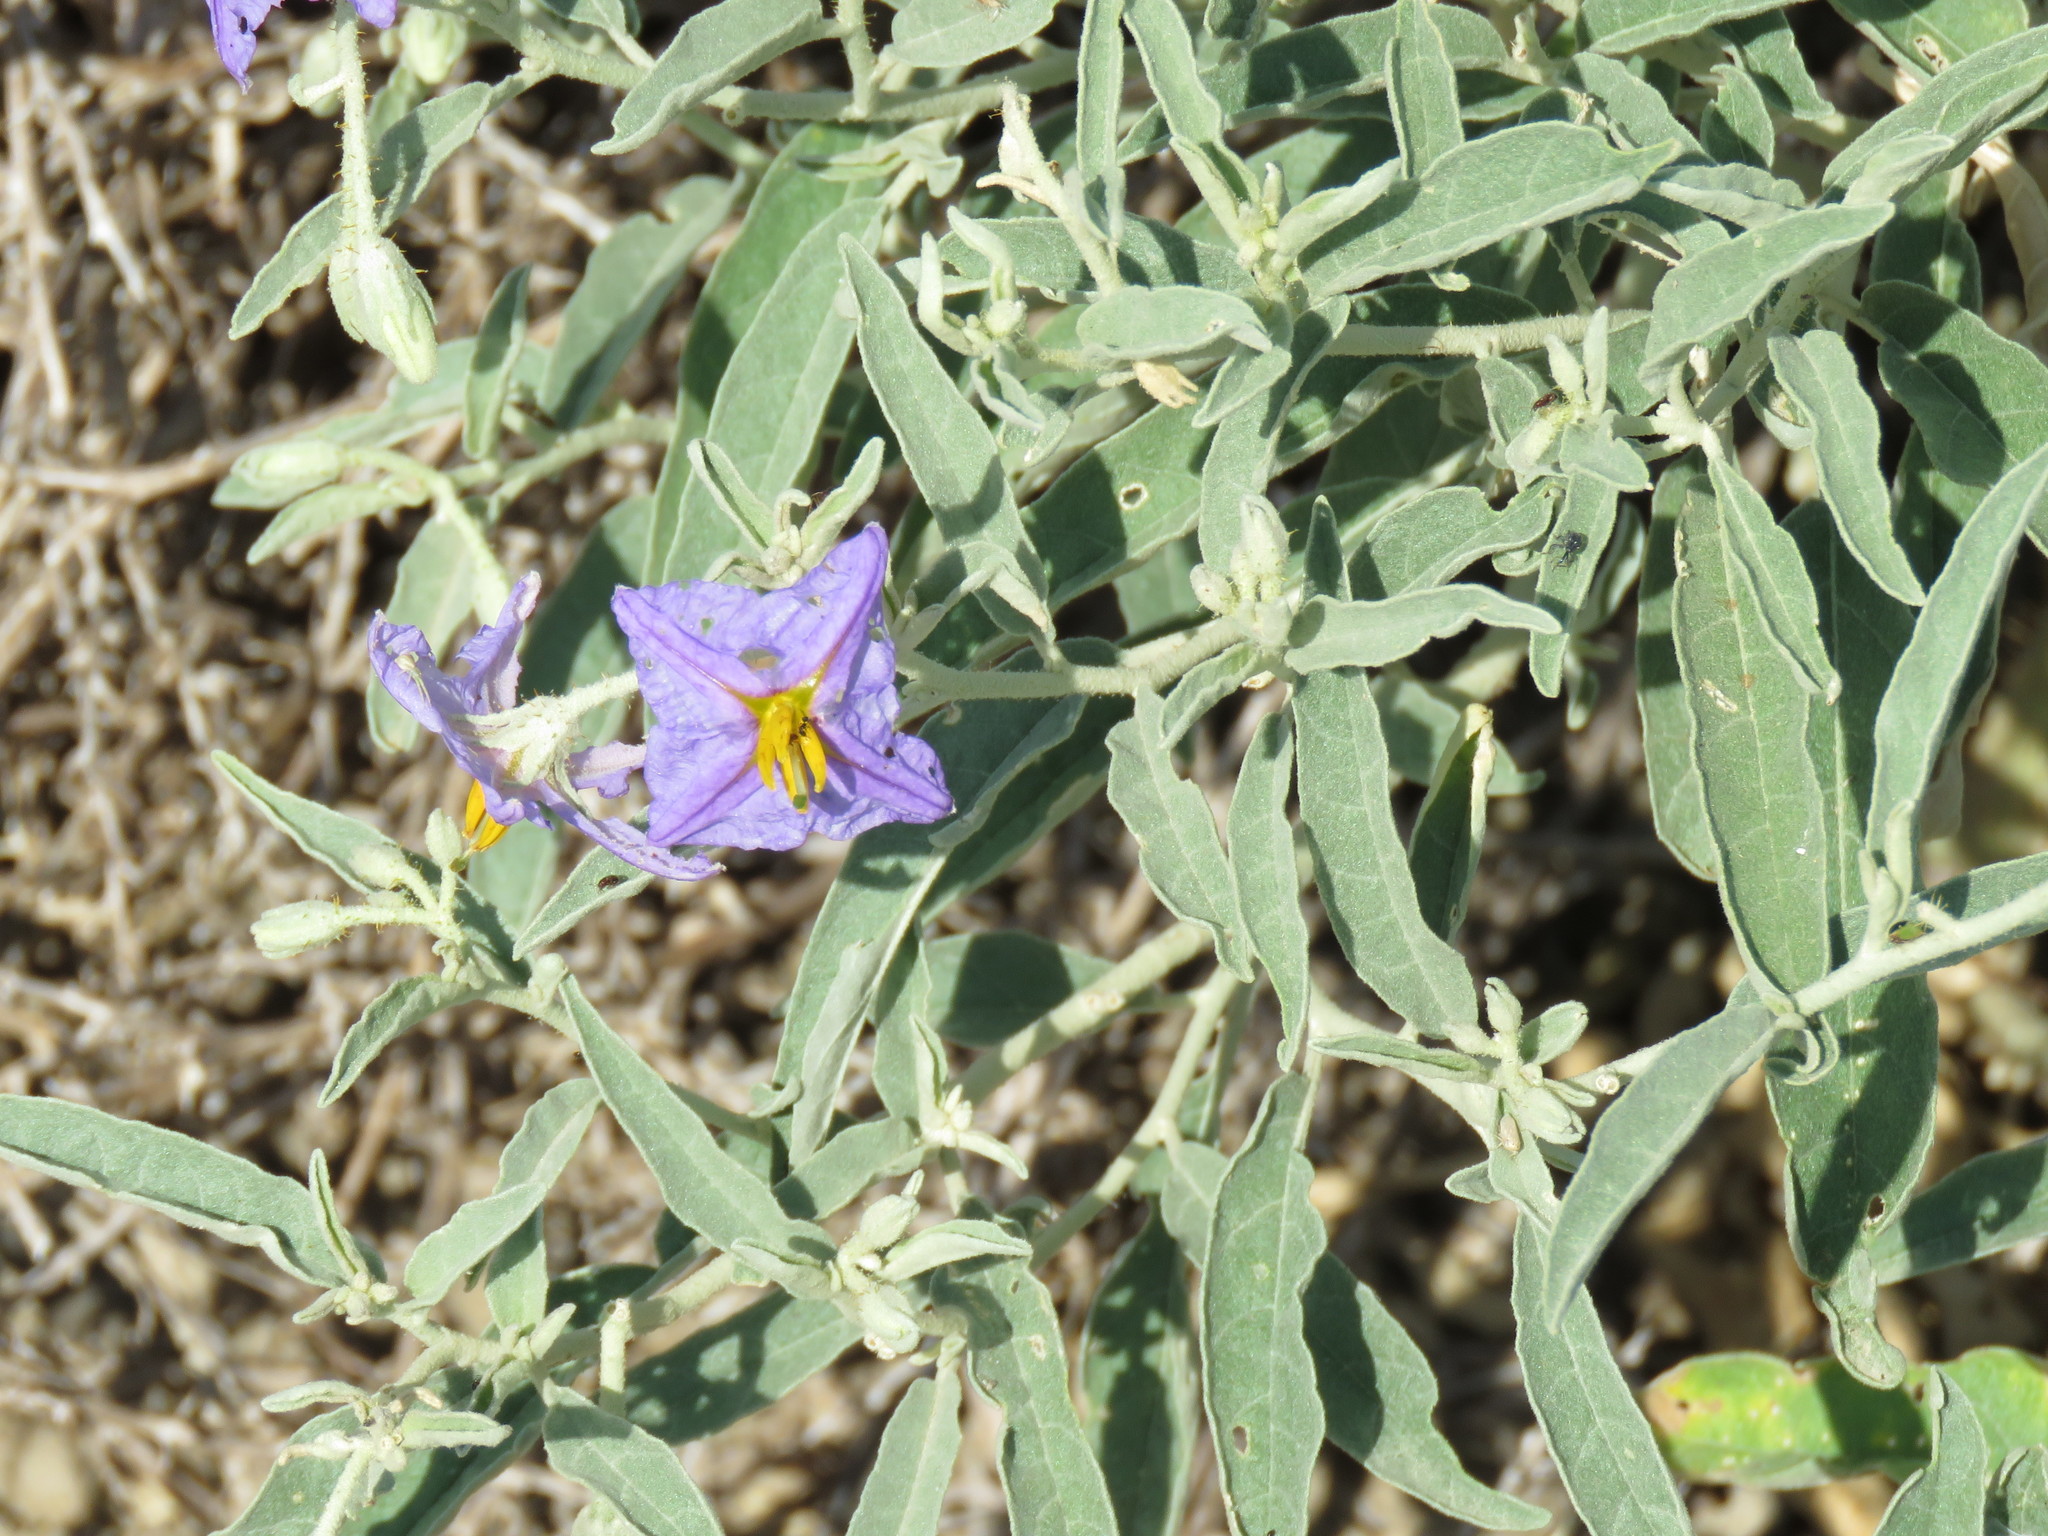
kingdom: Plantae
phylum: Tracheophyta
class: Magnoliopsida
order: Solanales
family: Solanaceae
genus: Solanum
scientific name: Solanum elaeagnifolium
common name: Silverleaf nightshade
